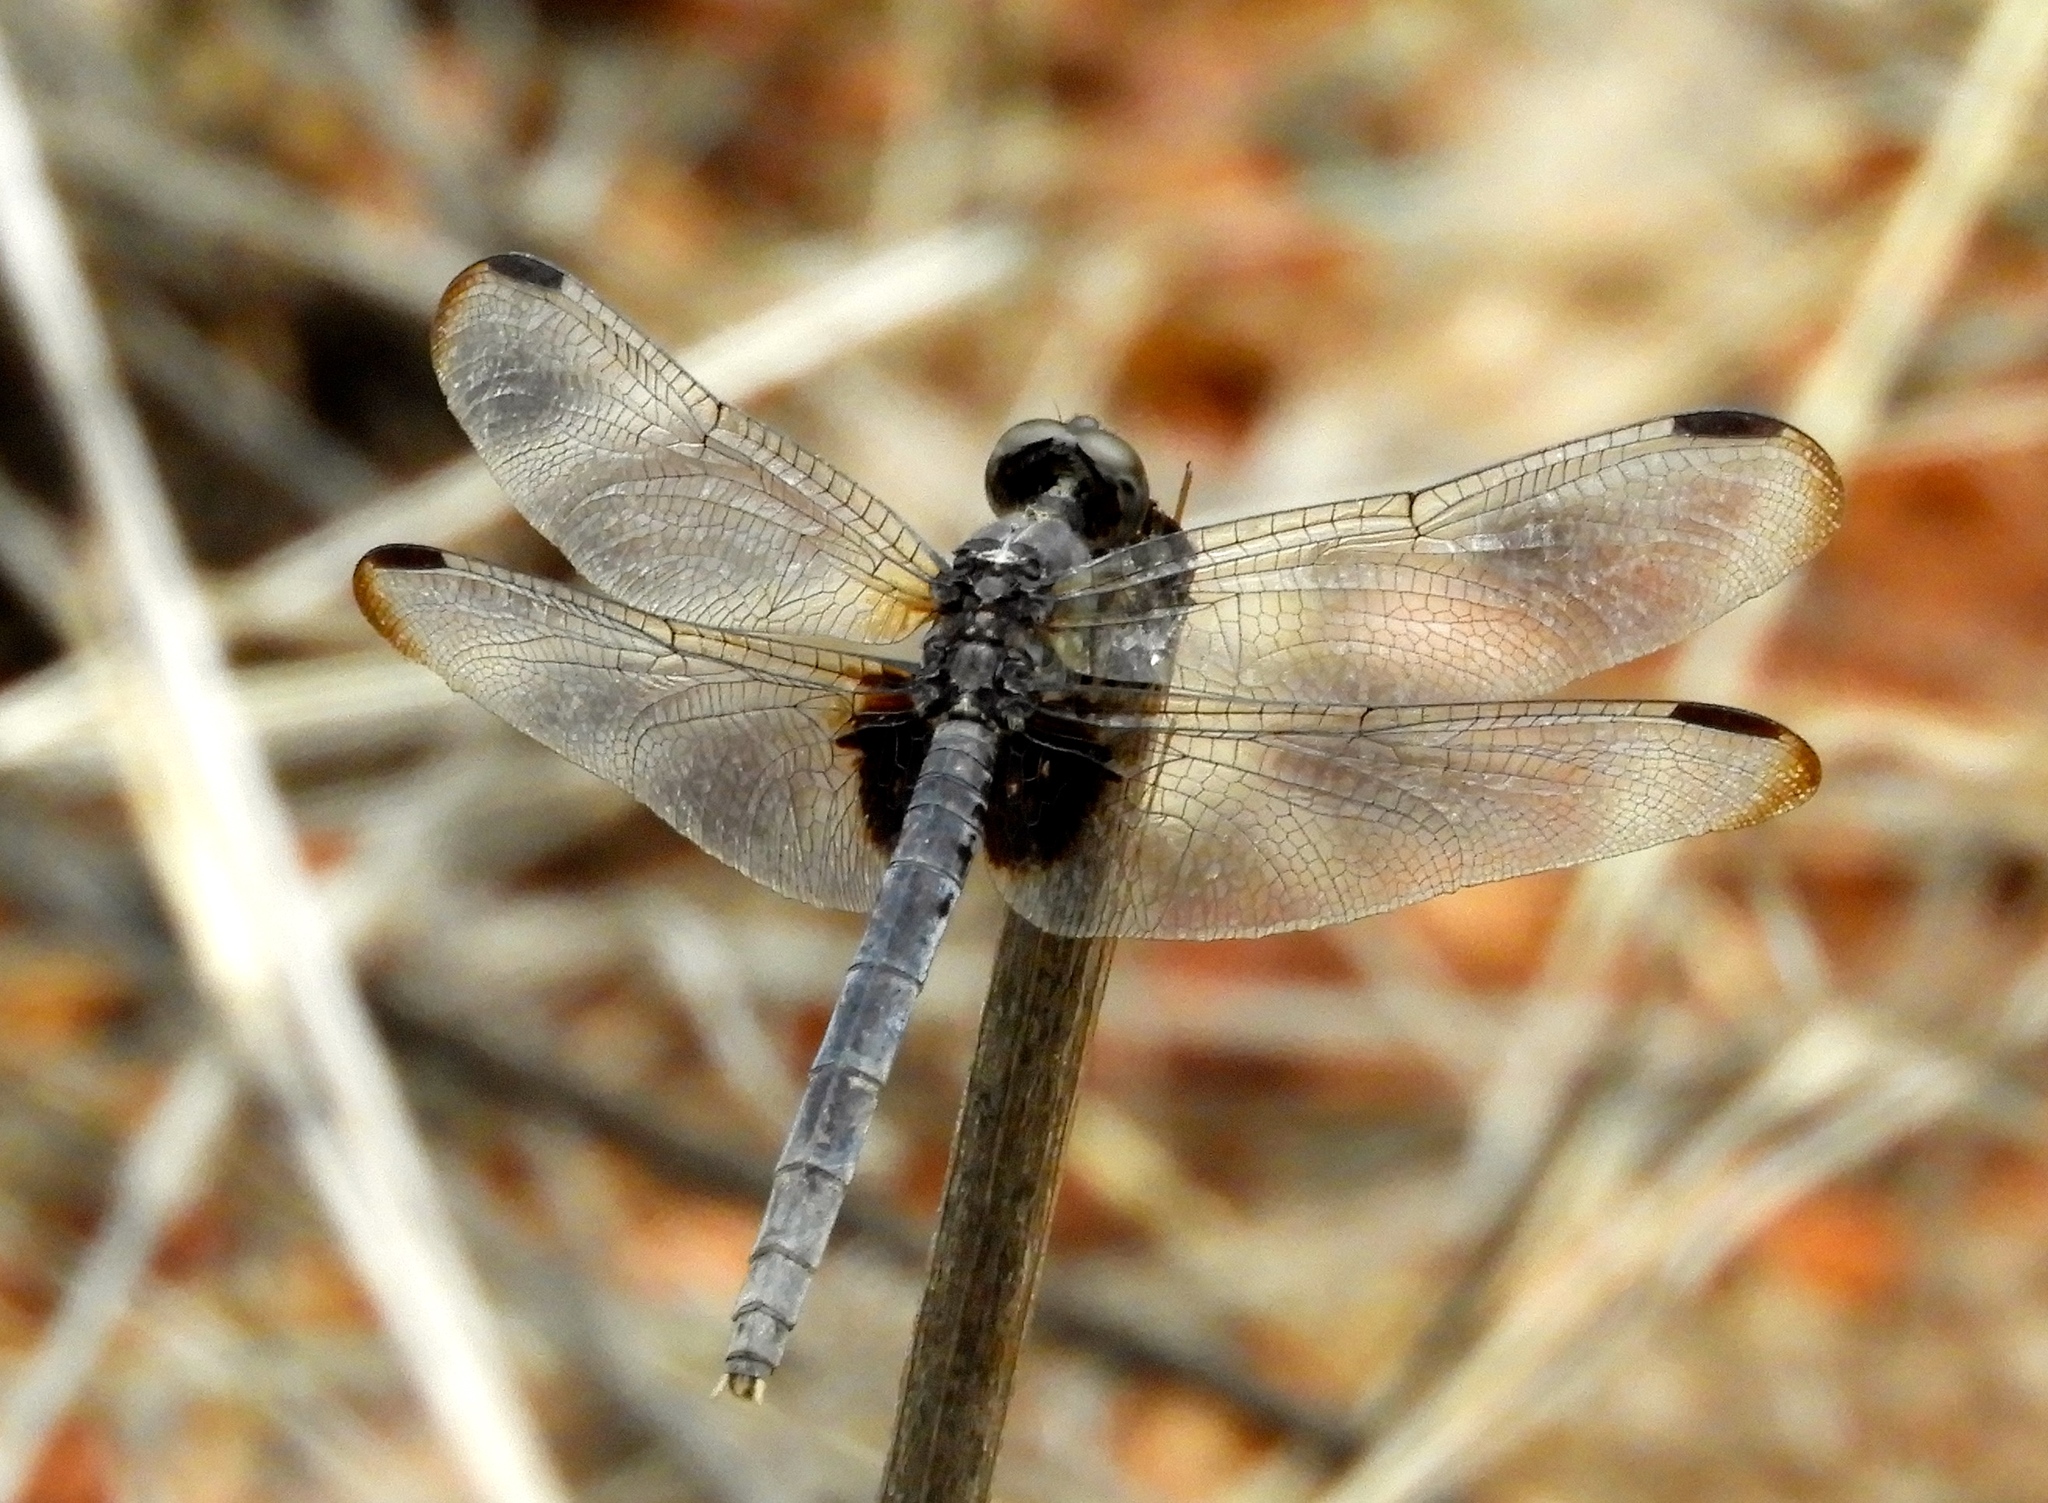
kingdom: Animalia
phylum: Arthropoda
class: Insecta
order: Odonata
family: Libellulidae
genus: Erythrodiplax
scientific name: Erythrodiplax funerea
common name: Black-winged dragonlet
